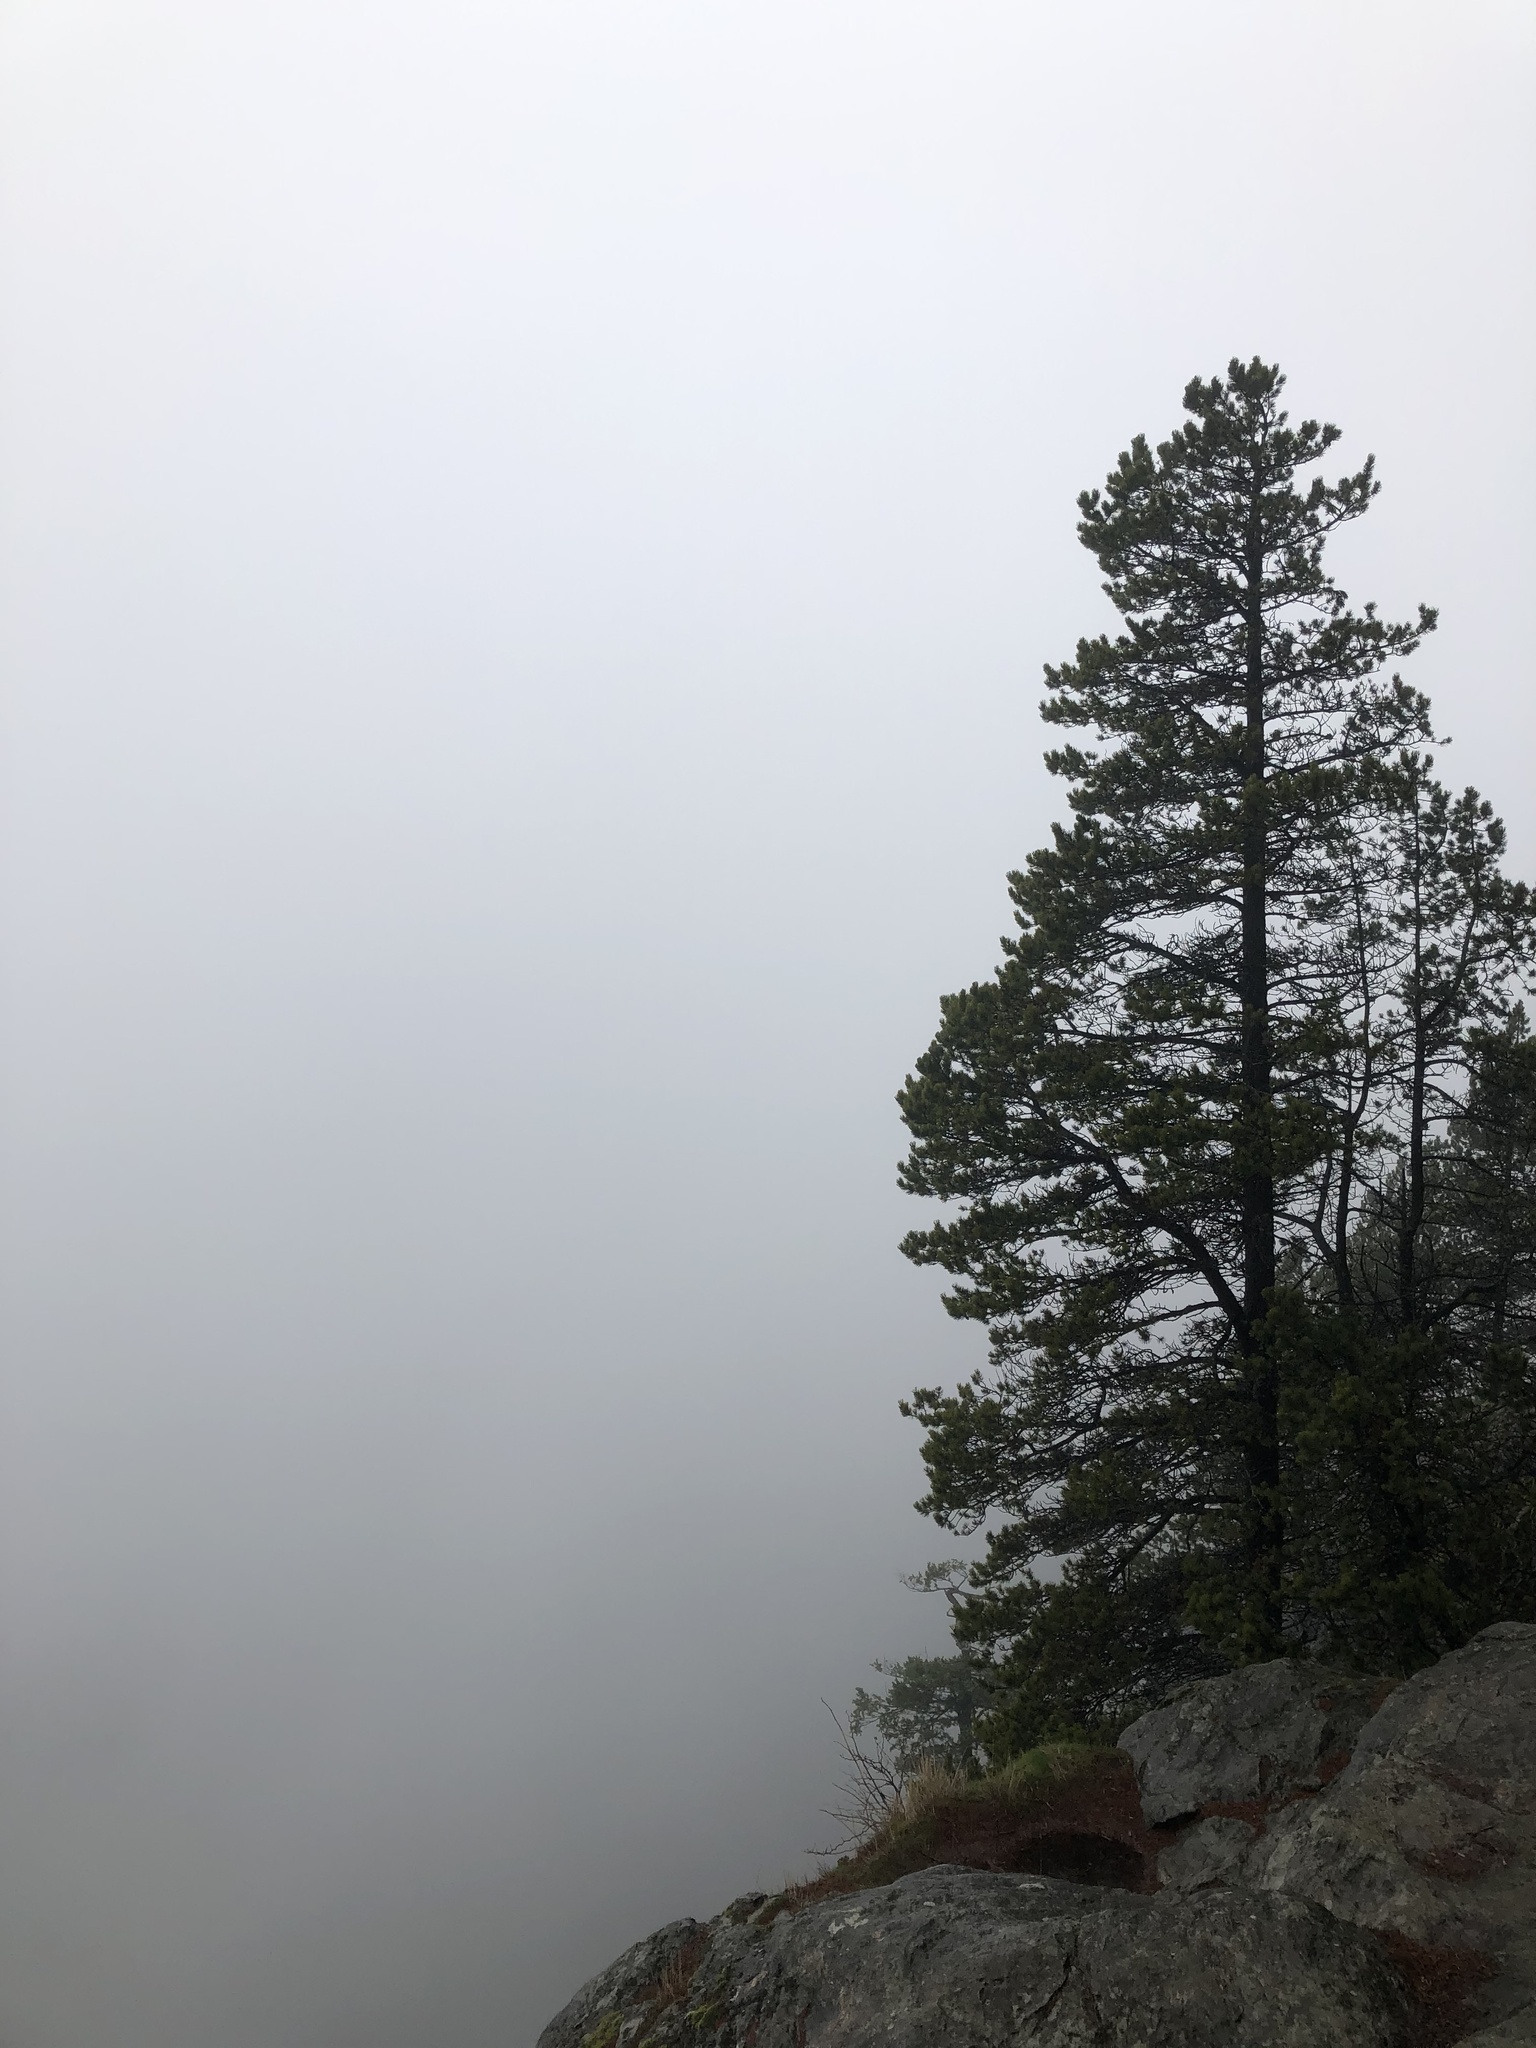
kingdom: Plantae
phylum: Tracheophyta
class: Pinopsida
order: Pinales
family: Pinaceae
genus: Pinus
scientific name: Pinus contorta
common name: Lodgepole pine
